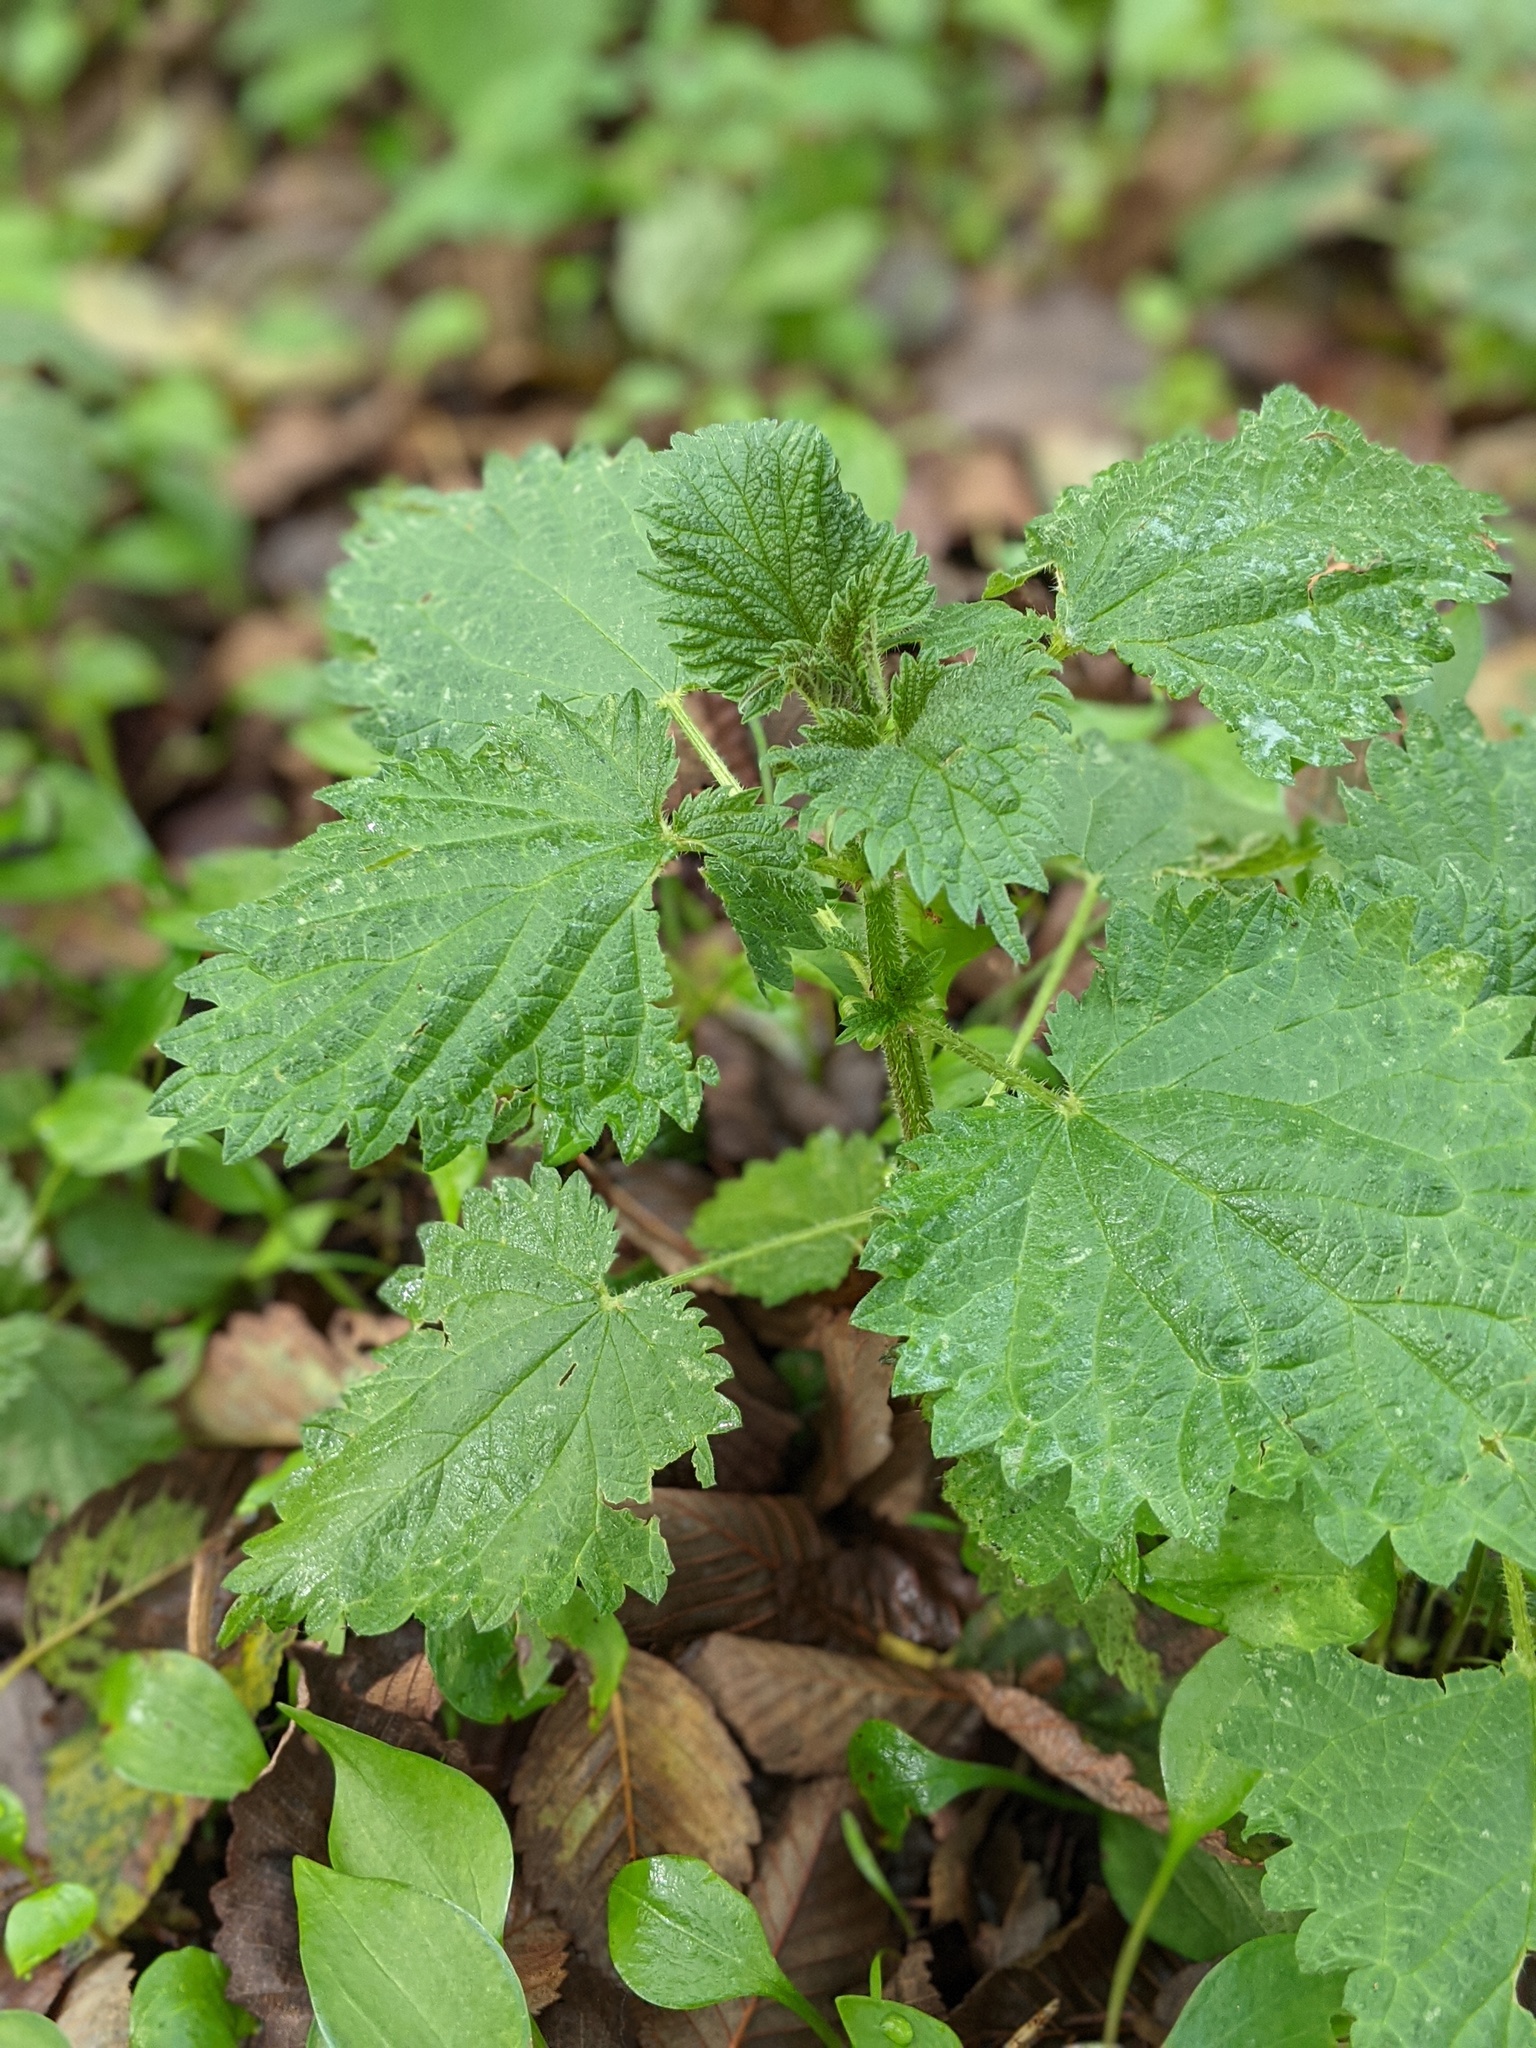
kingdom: Plantae
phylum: Tracheophyta
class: Magnoliopsida
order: Rosales
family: Urticaceae
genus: Urtica
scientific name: Urtica dioica
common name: Common nettle
